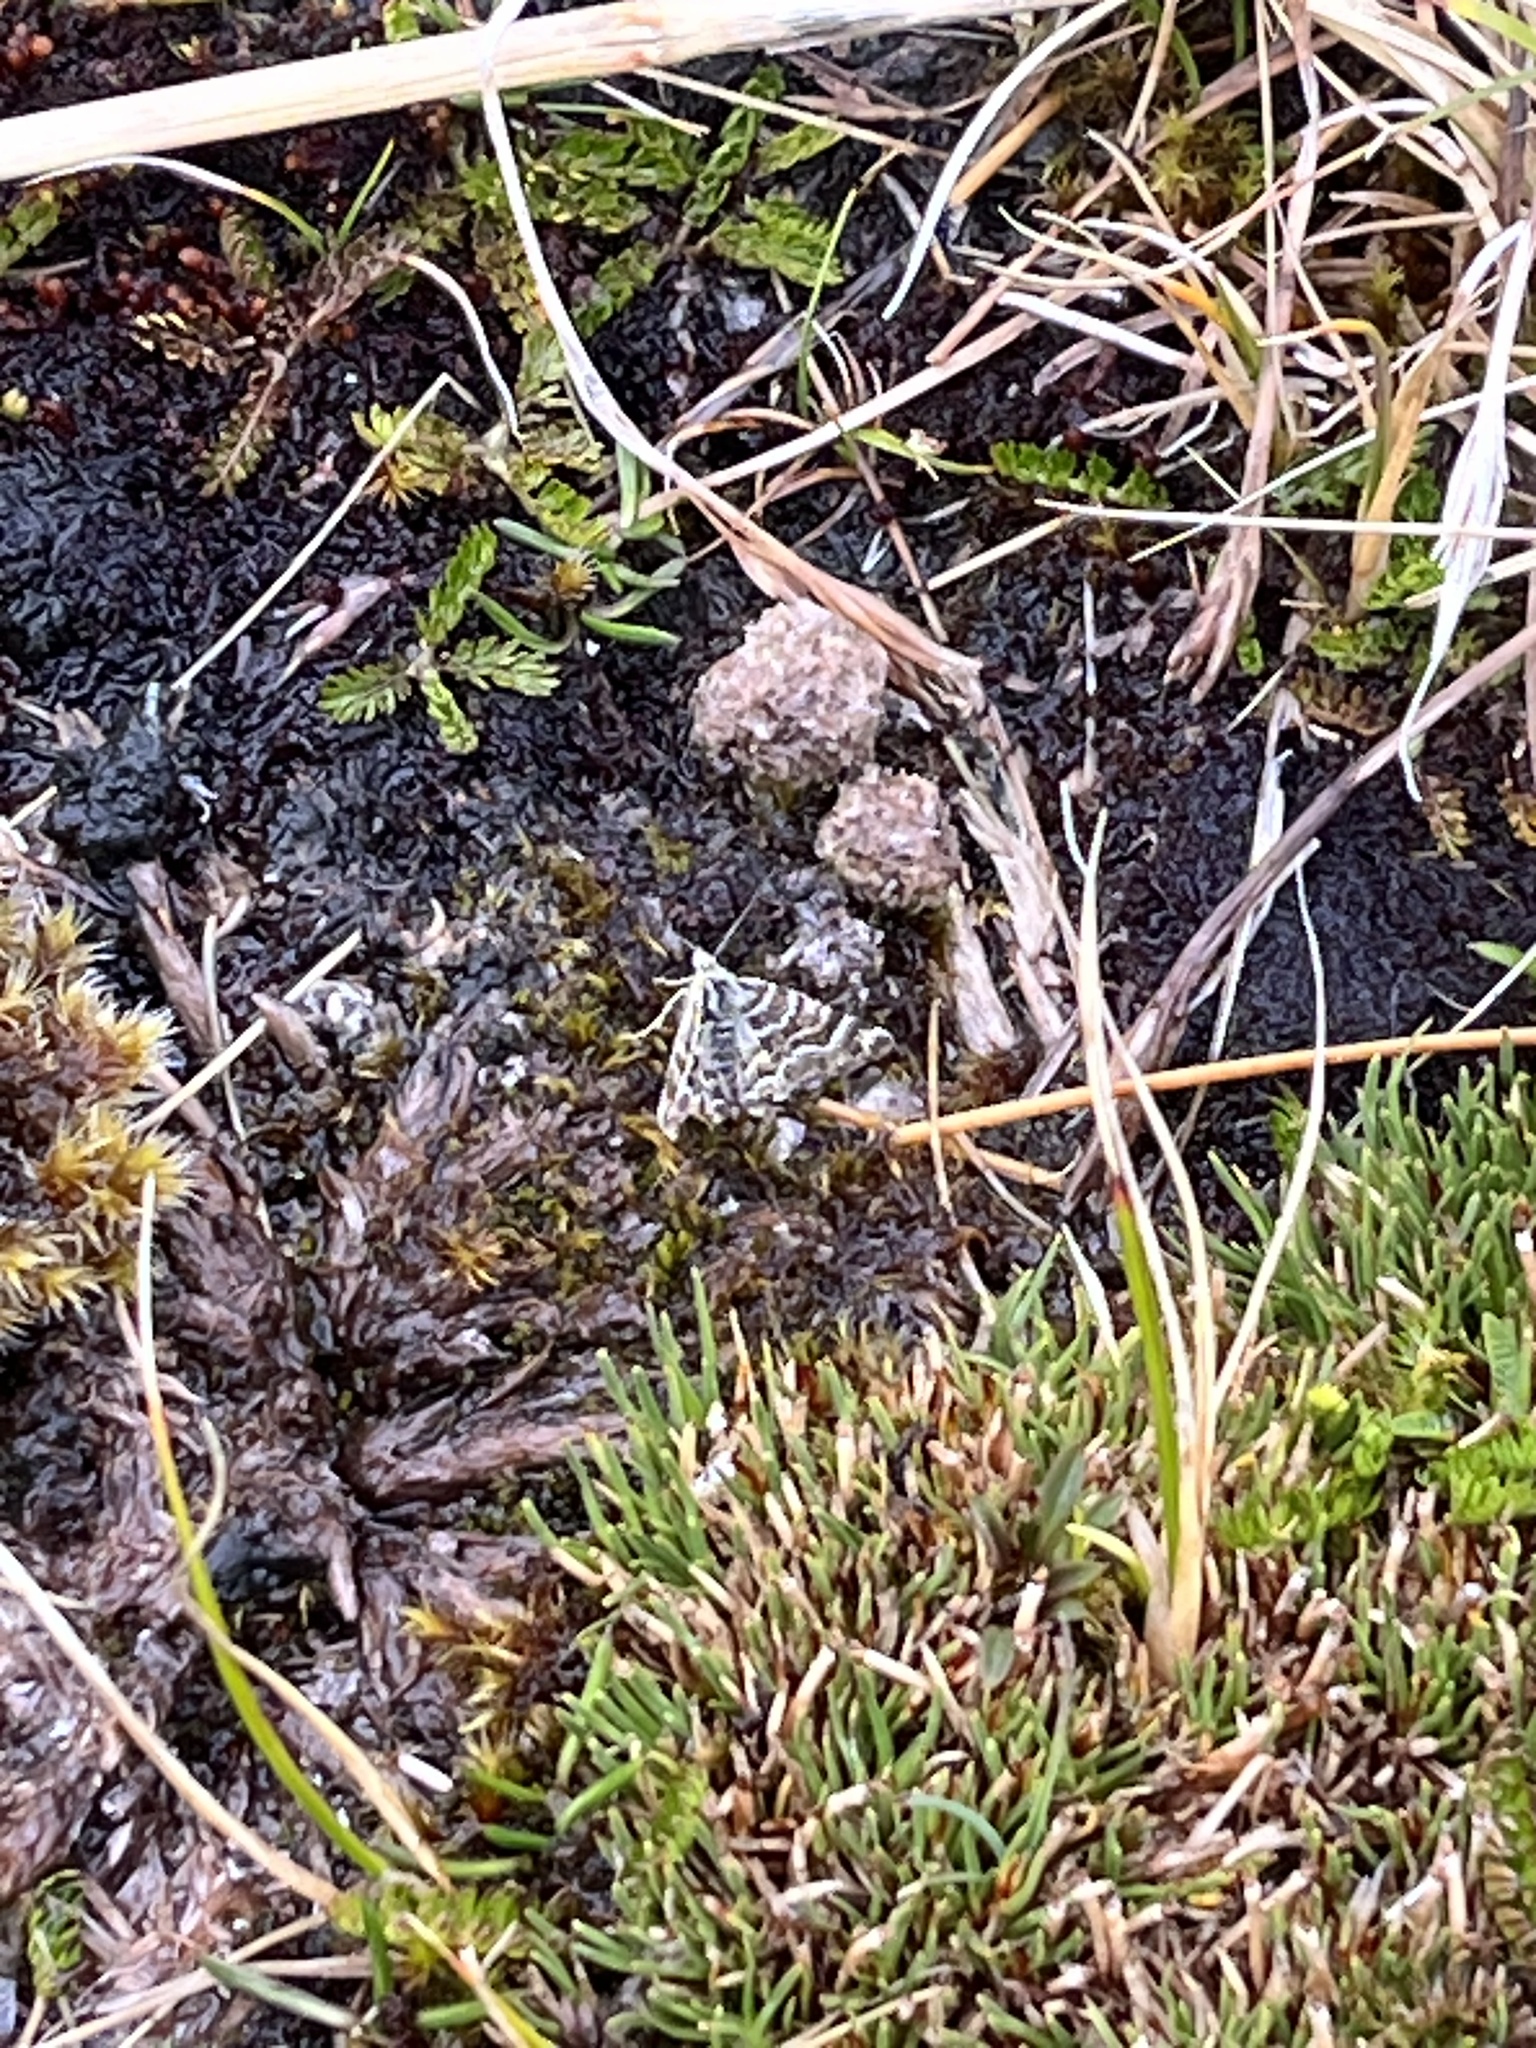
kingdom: Animalia
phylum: Arthropoda
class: Insecta
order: Lepidoptera
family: Geometridae
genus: Notoreas
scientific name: Notoreas paradelpha
